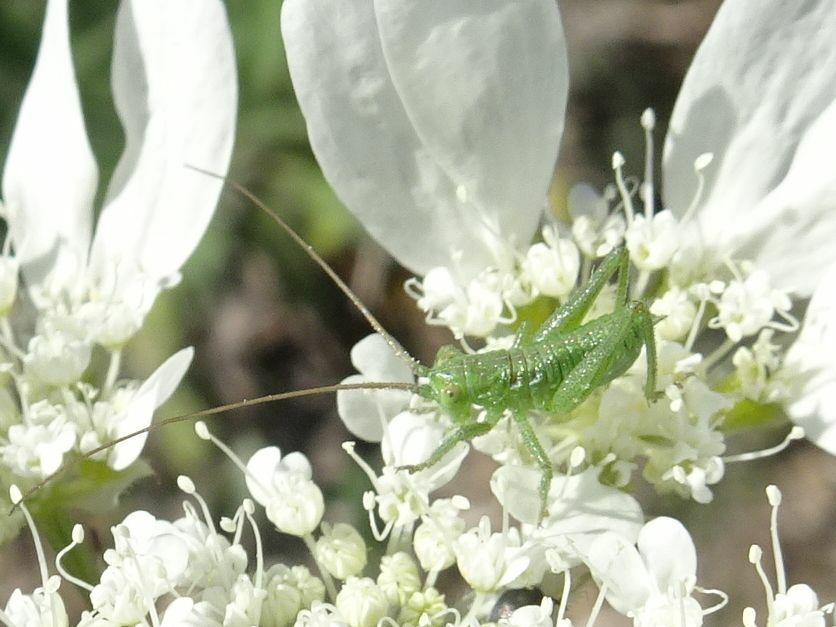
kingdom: Animalia
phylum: Arthropoda
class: Insecta
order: Orthoptera
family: Tettigoniidae
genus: Tettigonia
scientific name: Tettigonia viridissima
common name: Great green bush-cricket
